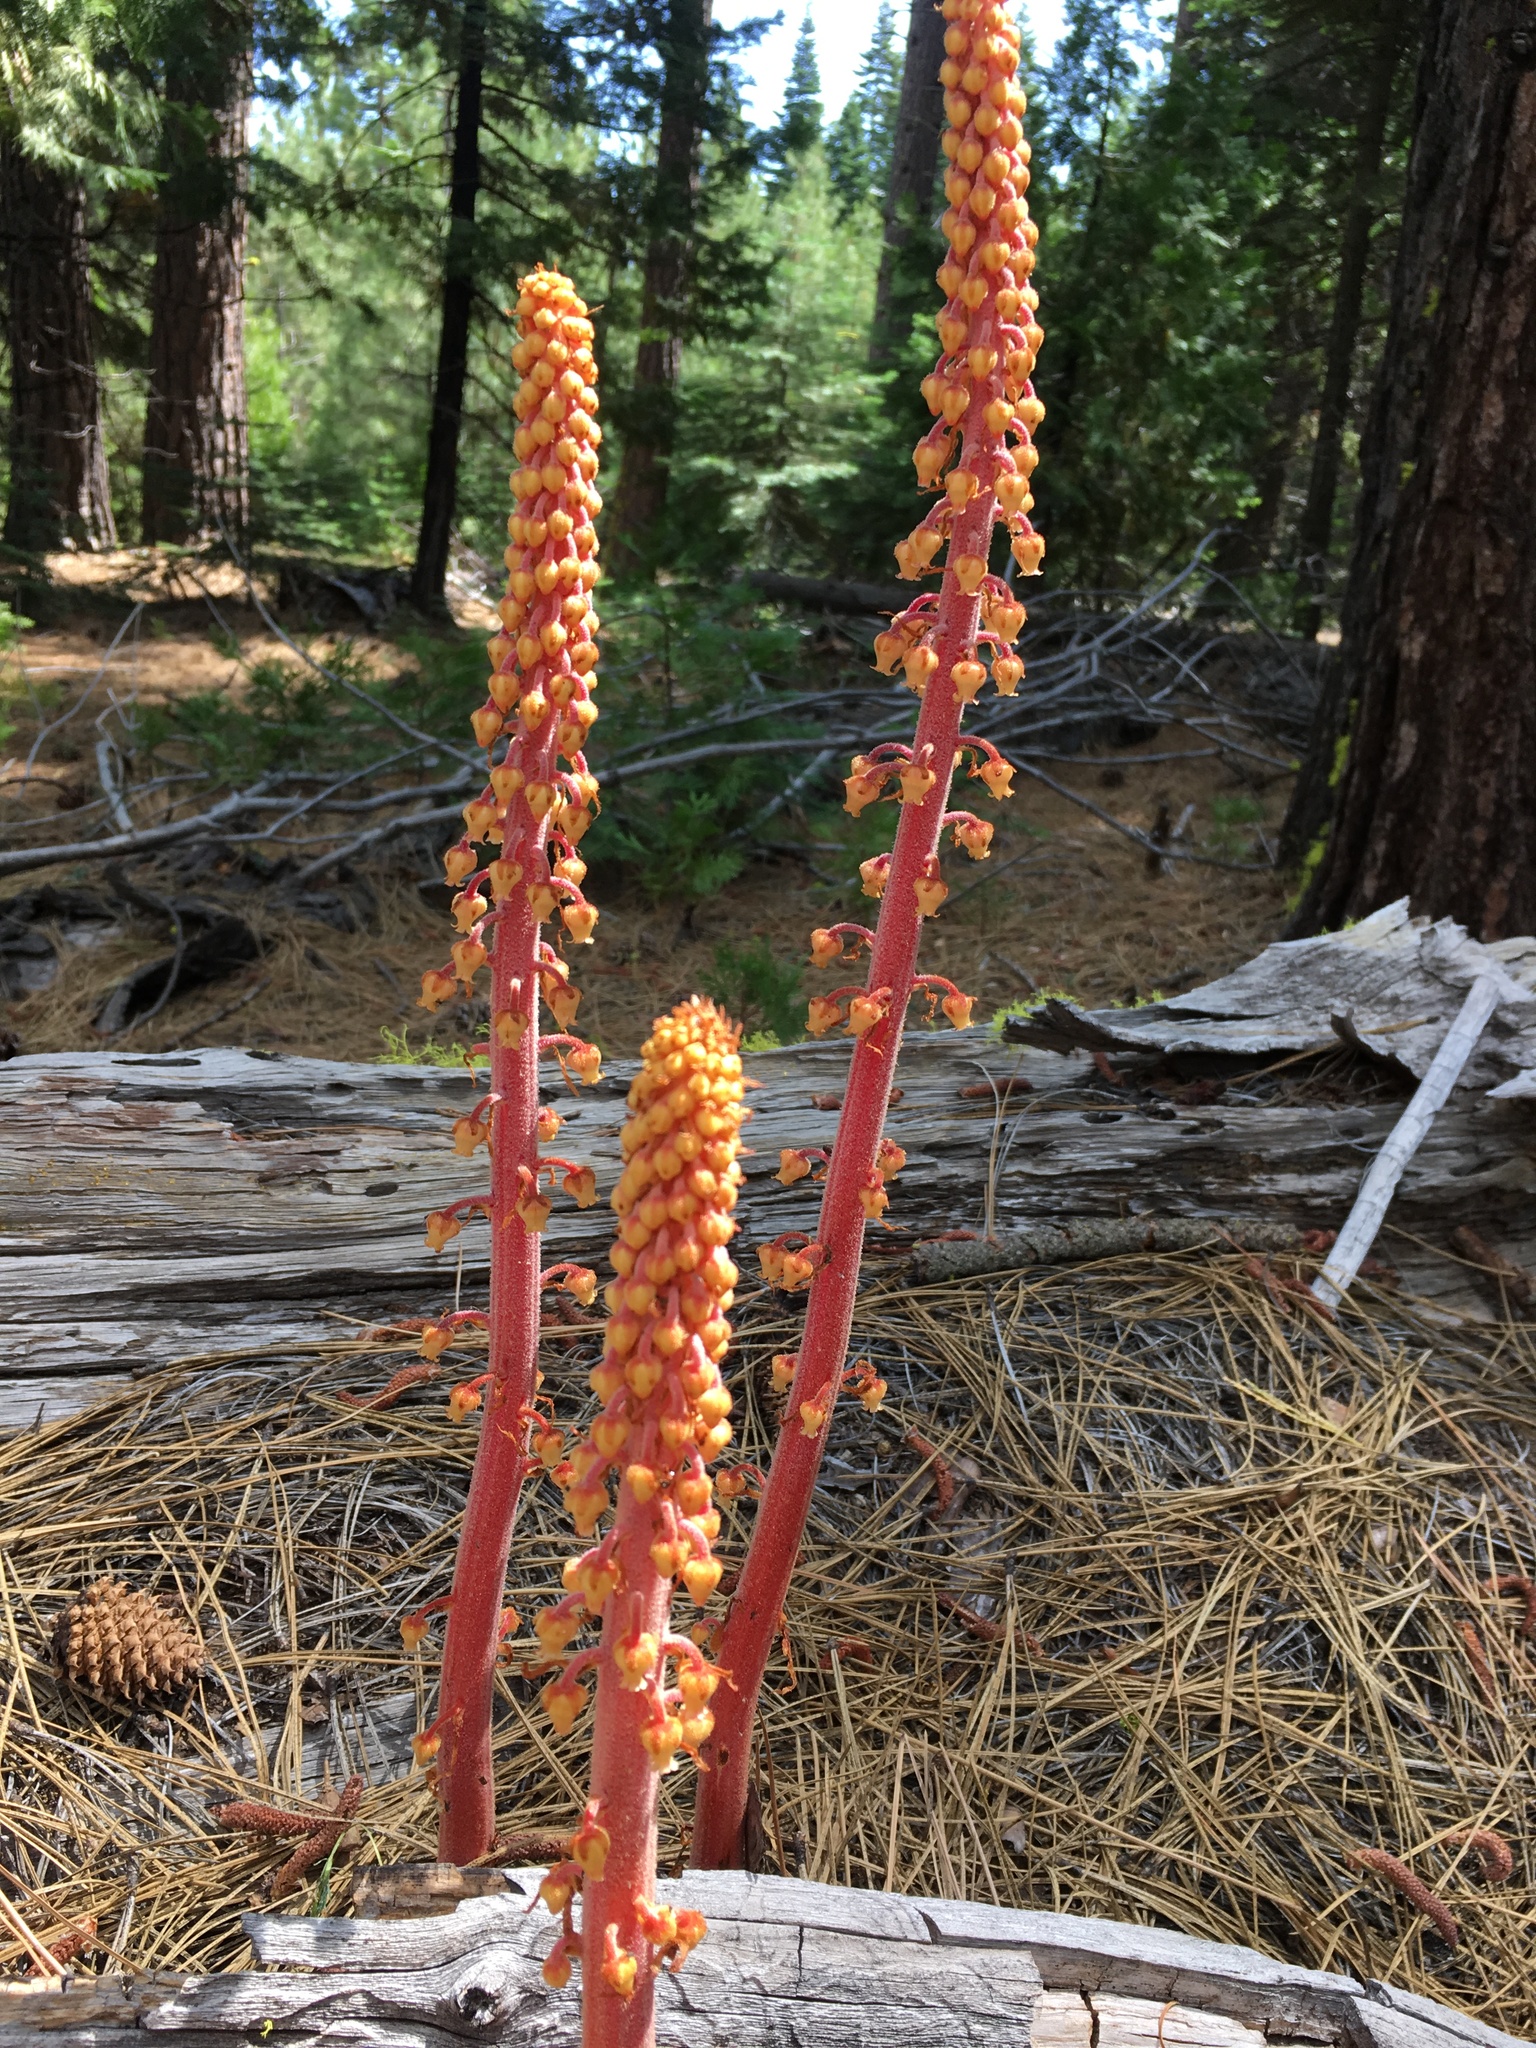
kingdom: Plantae
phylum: Tracheophyta
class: Magnoliopsida
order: Ericales
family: Ericaceae
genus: Pterospora
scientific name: Pterospora andromedea
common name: Giant bird's-nest
